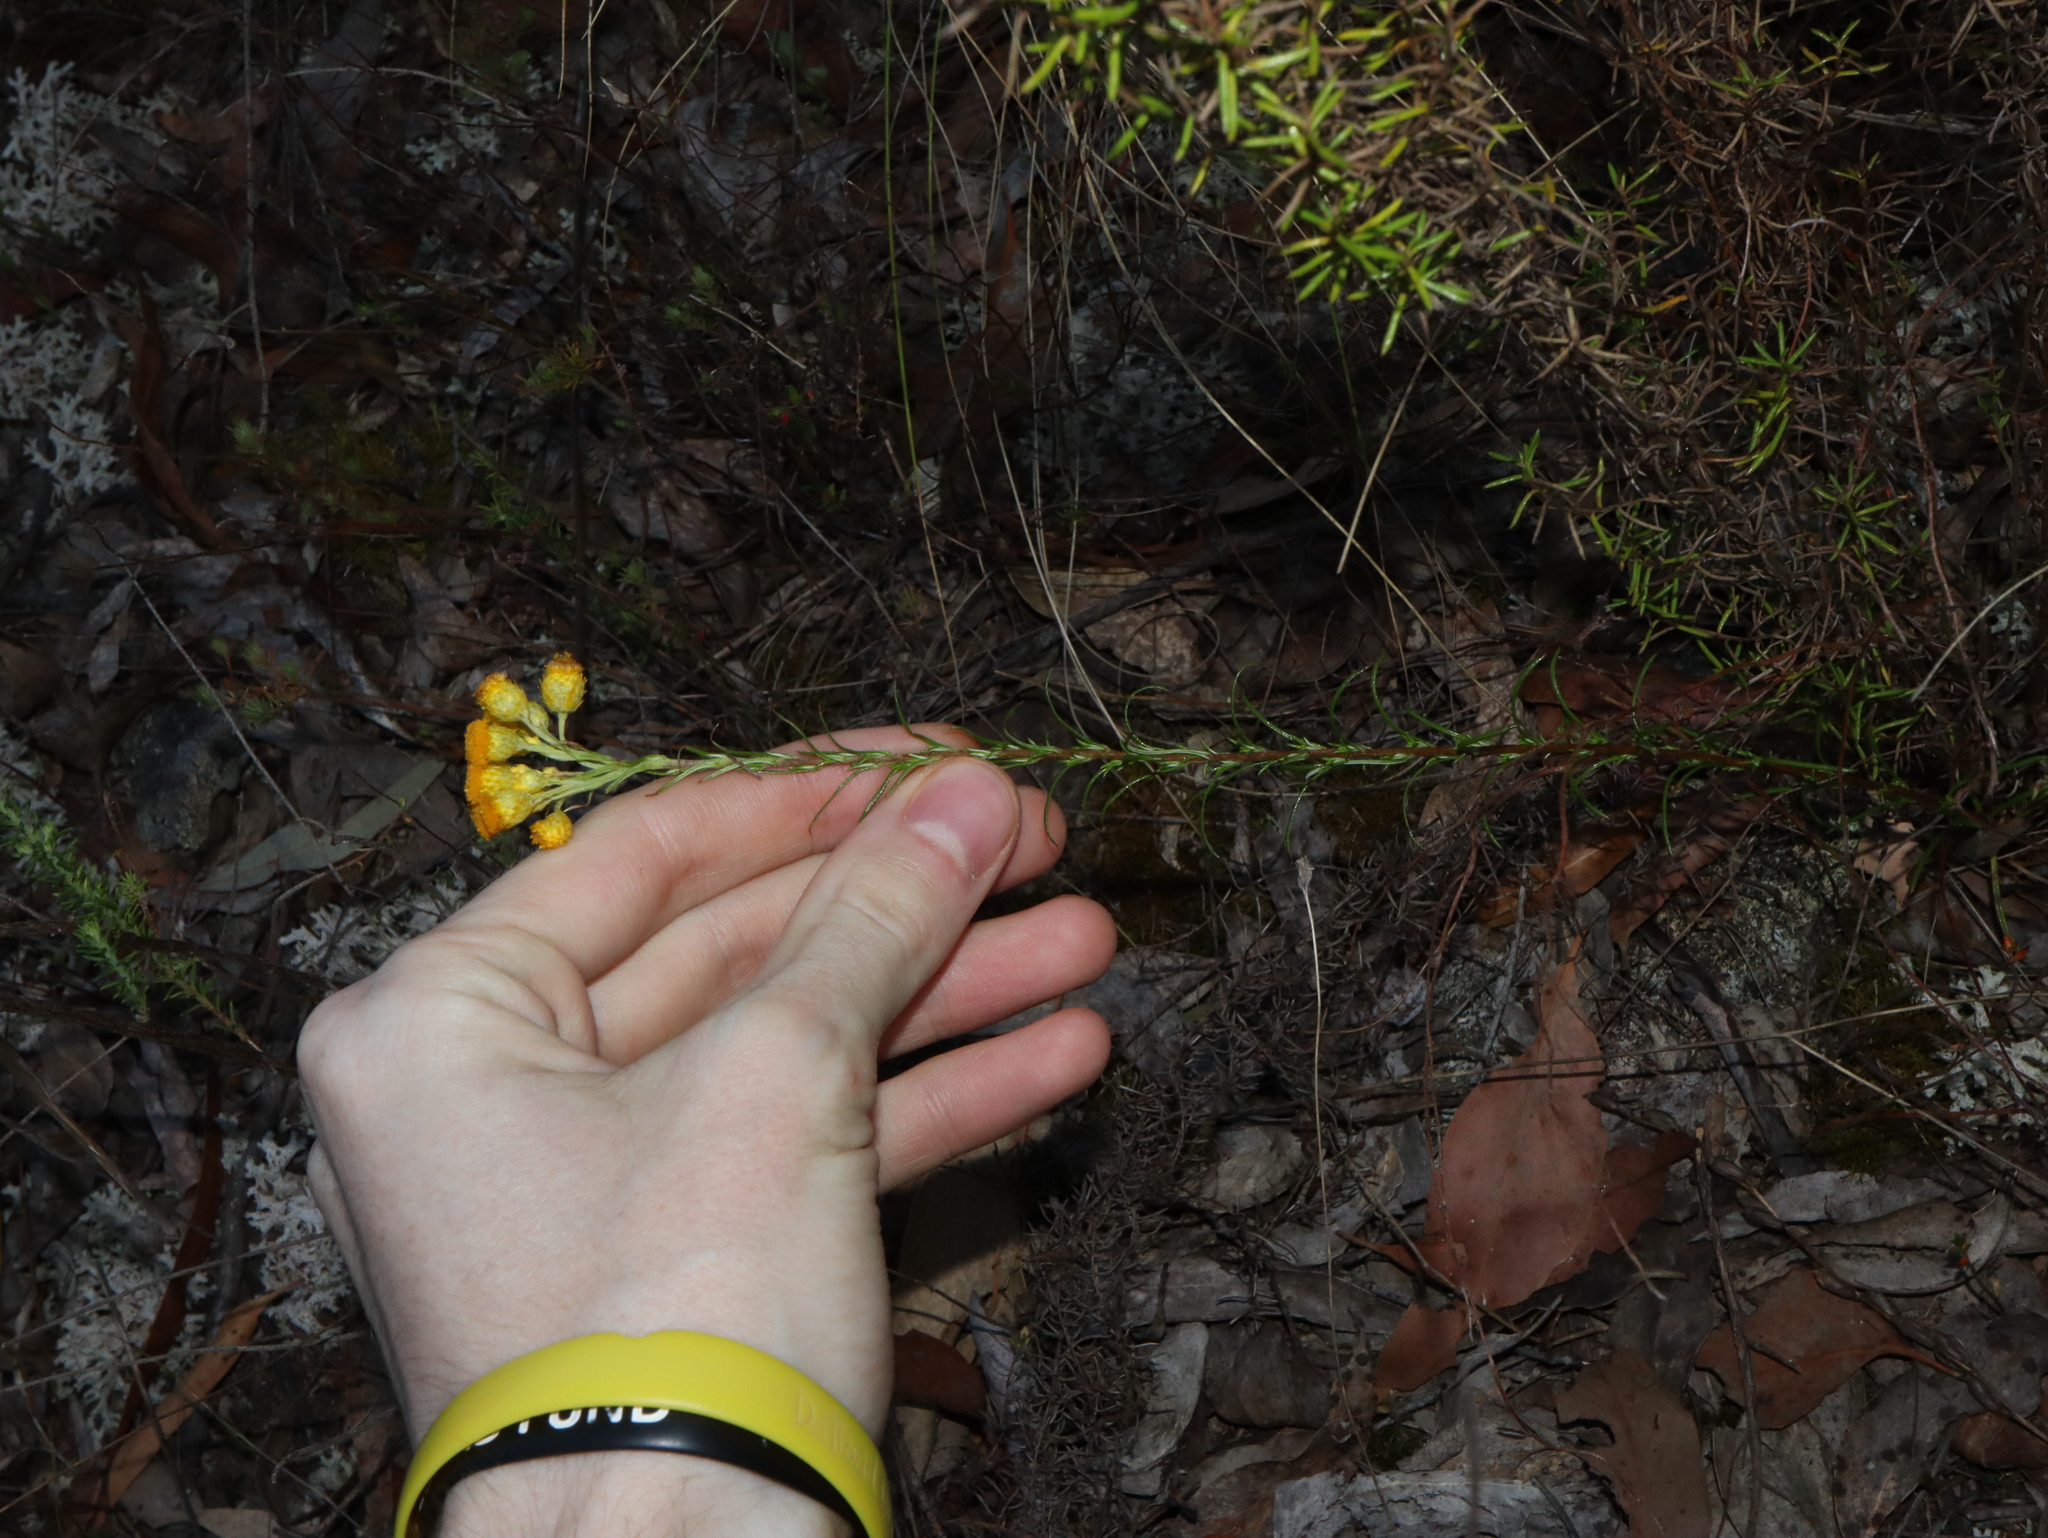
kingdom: Plantae
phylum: Tracheophyta
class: Magnoliopsida
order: Asterales
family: Asteraceae
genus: Chrysocephalum
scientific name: Chrysocephalum semipapposum
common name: Clustered everlasting
